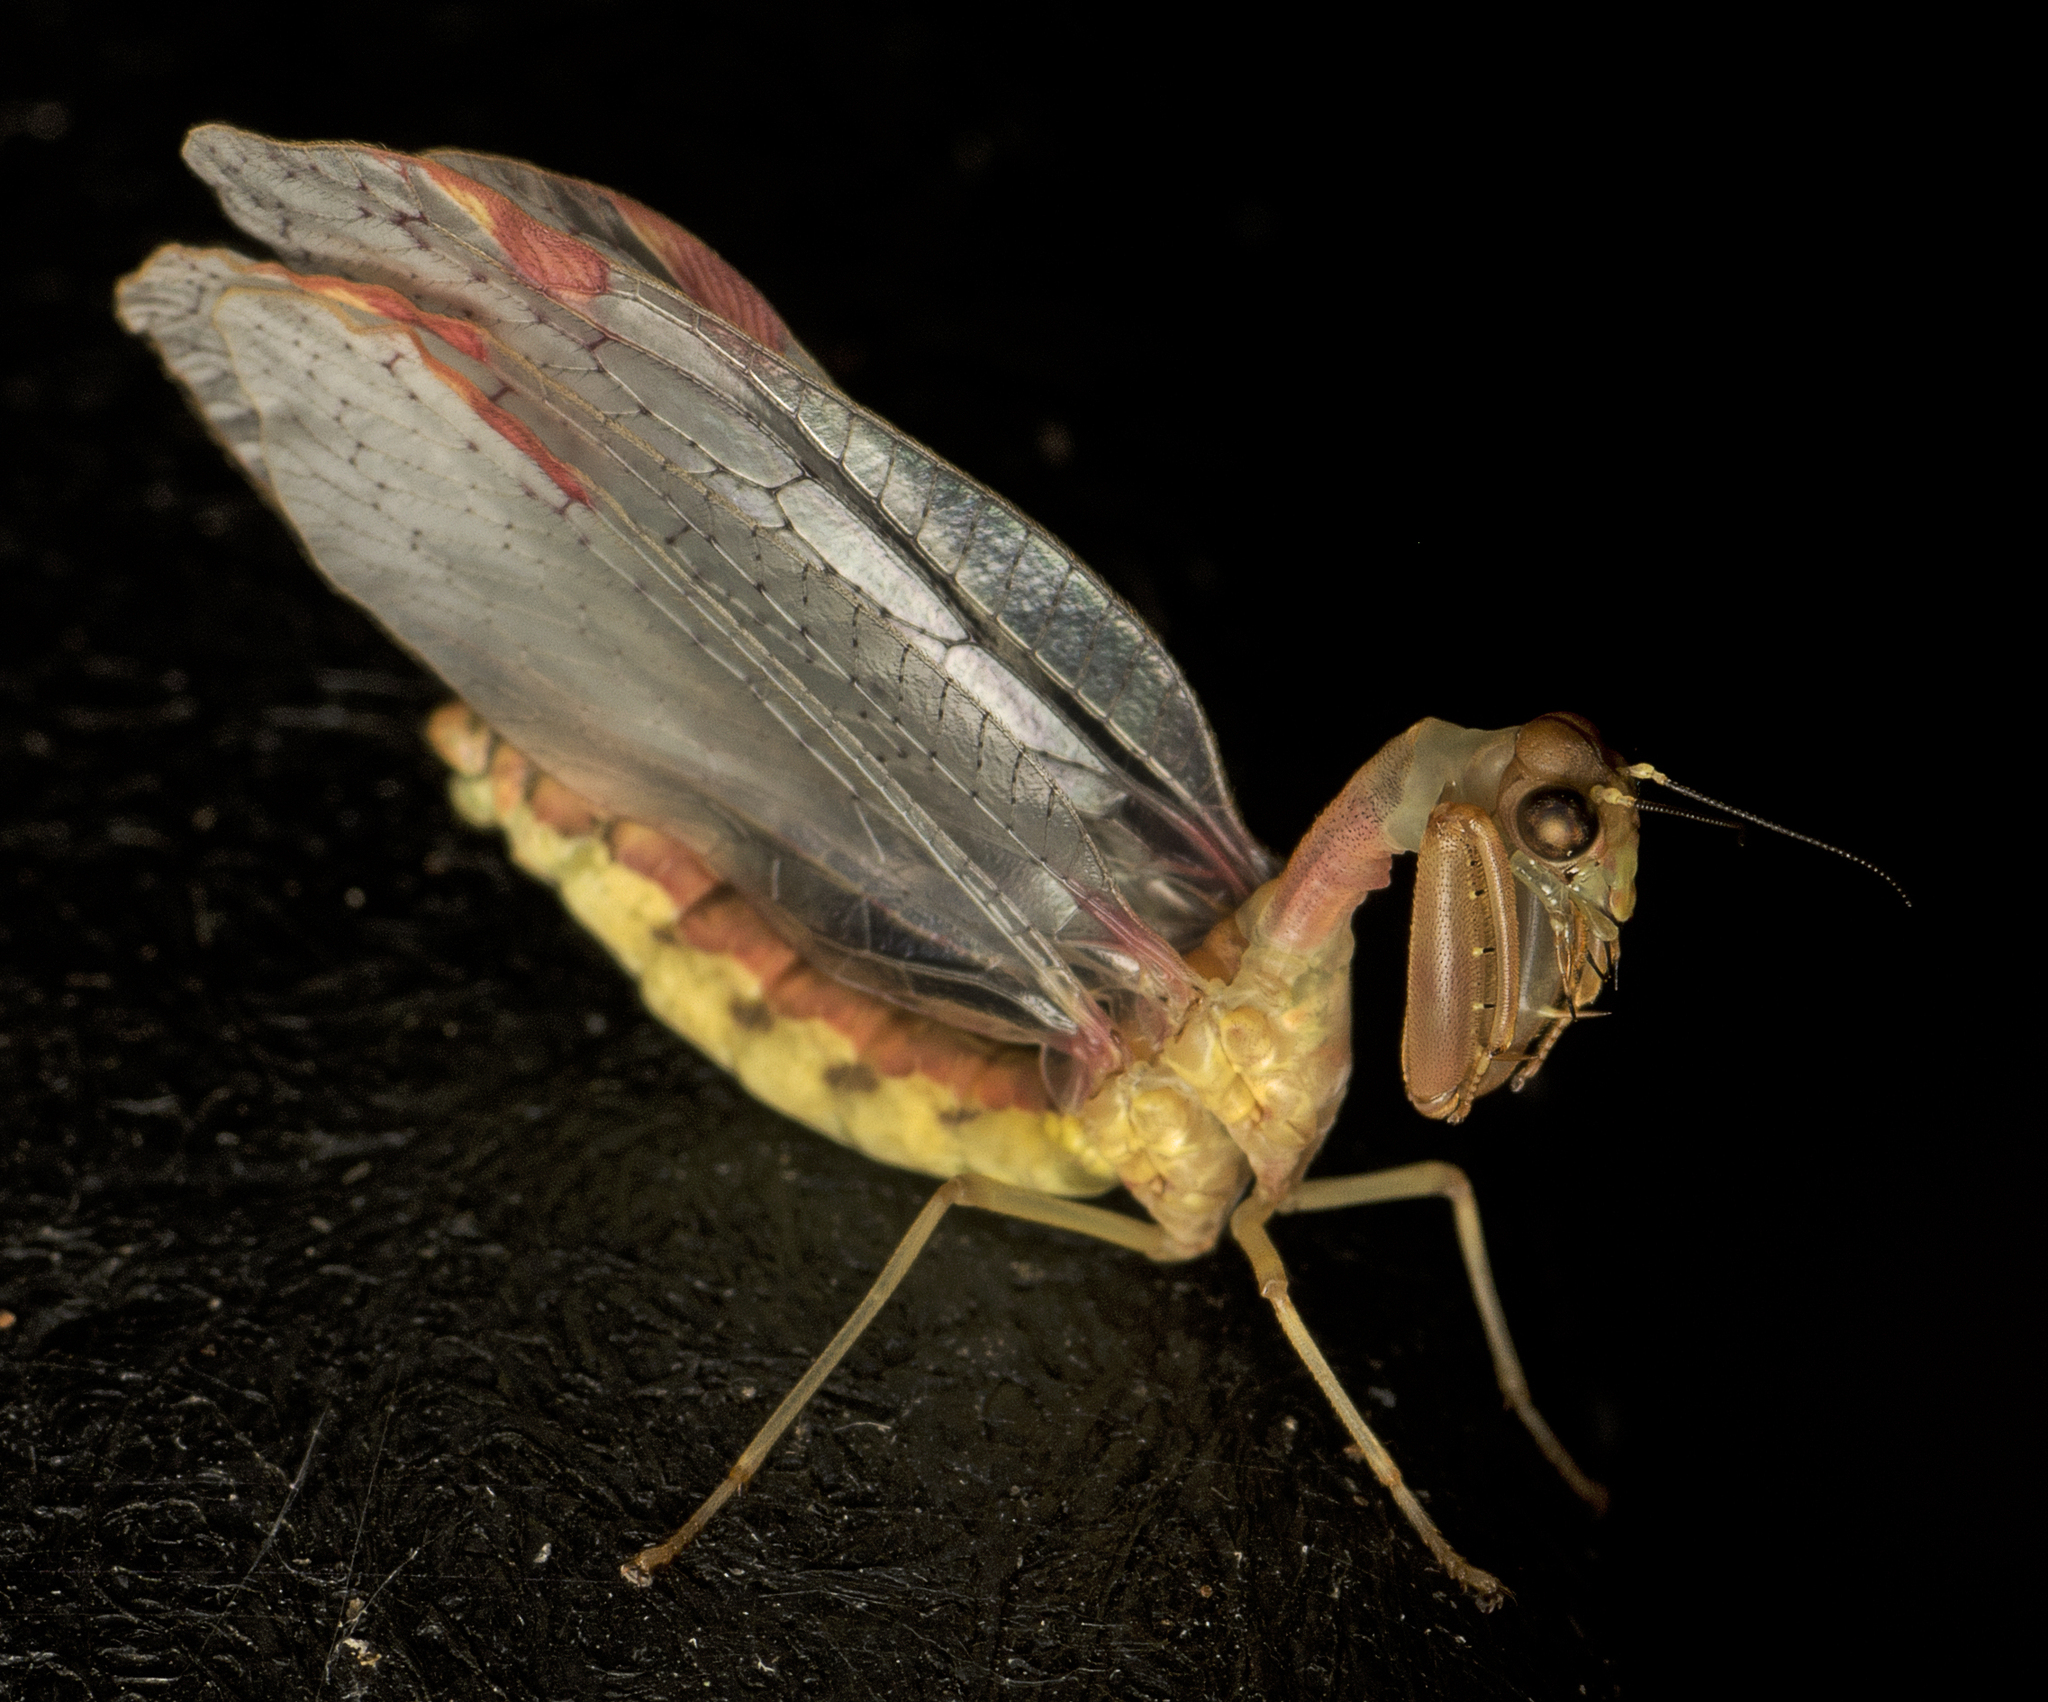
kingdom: Animalia
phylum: Arthropoda
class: Insecta
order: Neuroptera
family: Mantispidae
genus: Ditaxis
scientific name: Ditaxis biseriata
